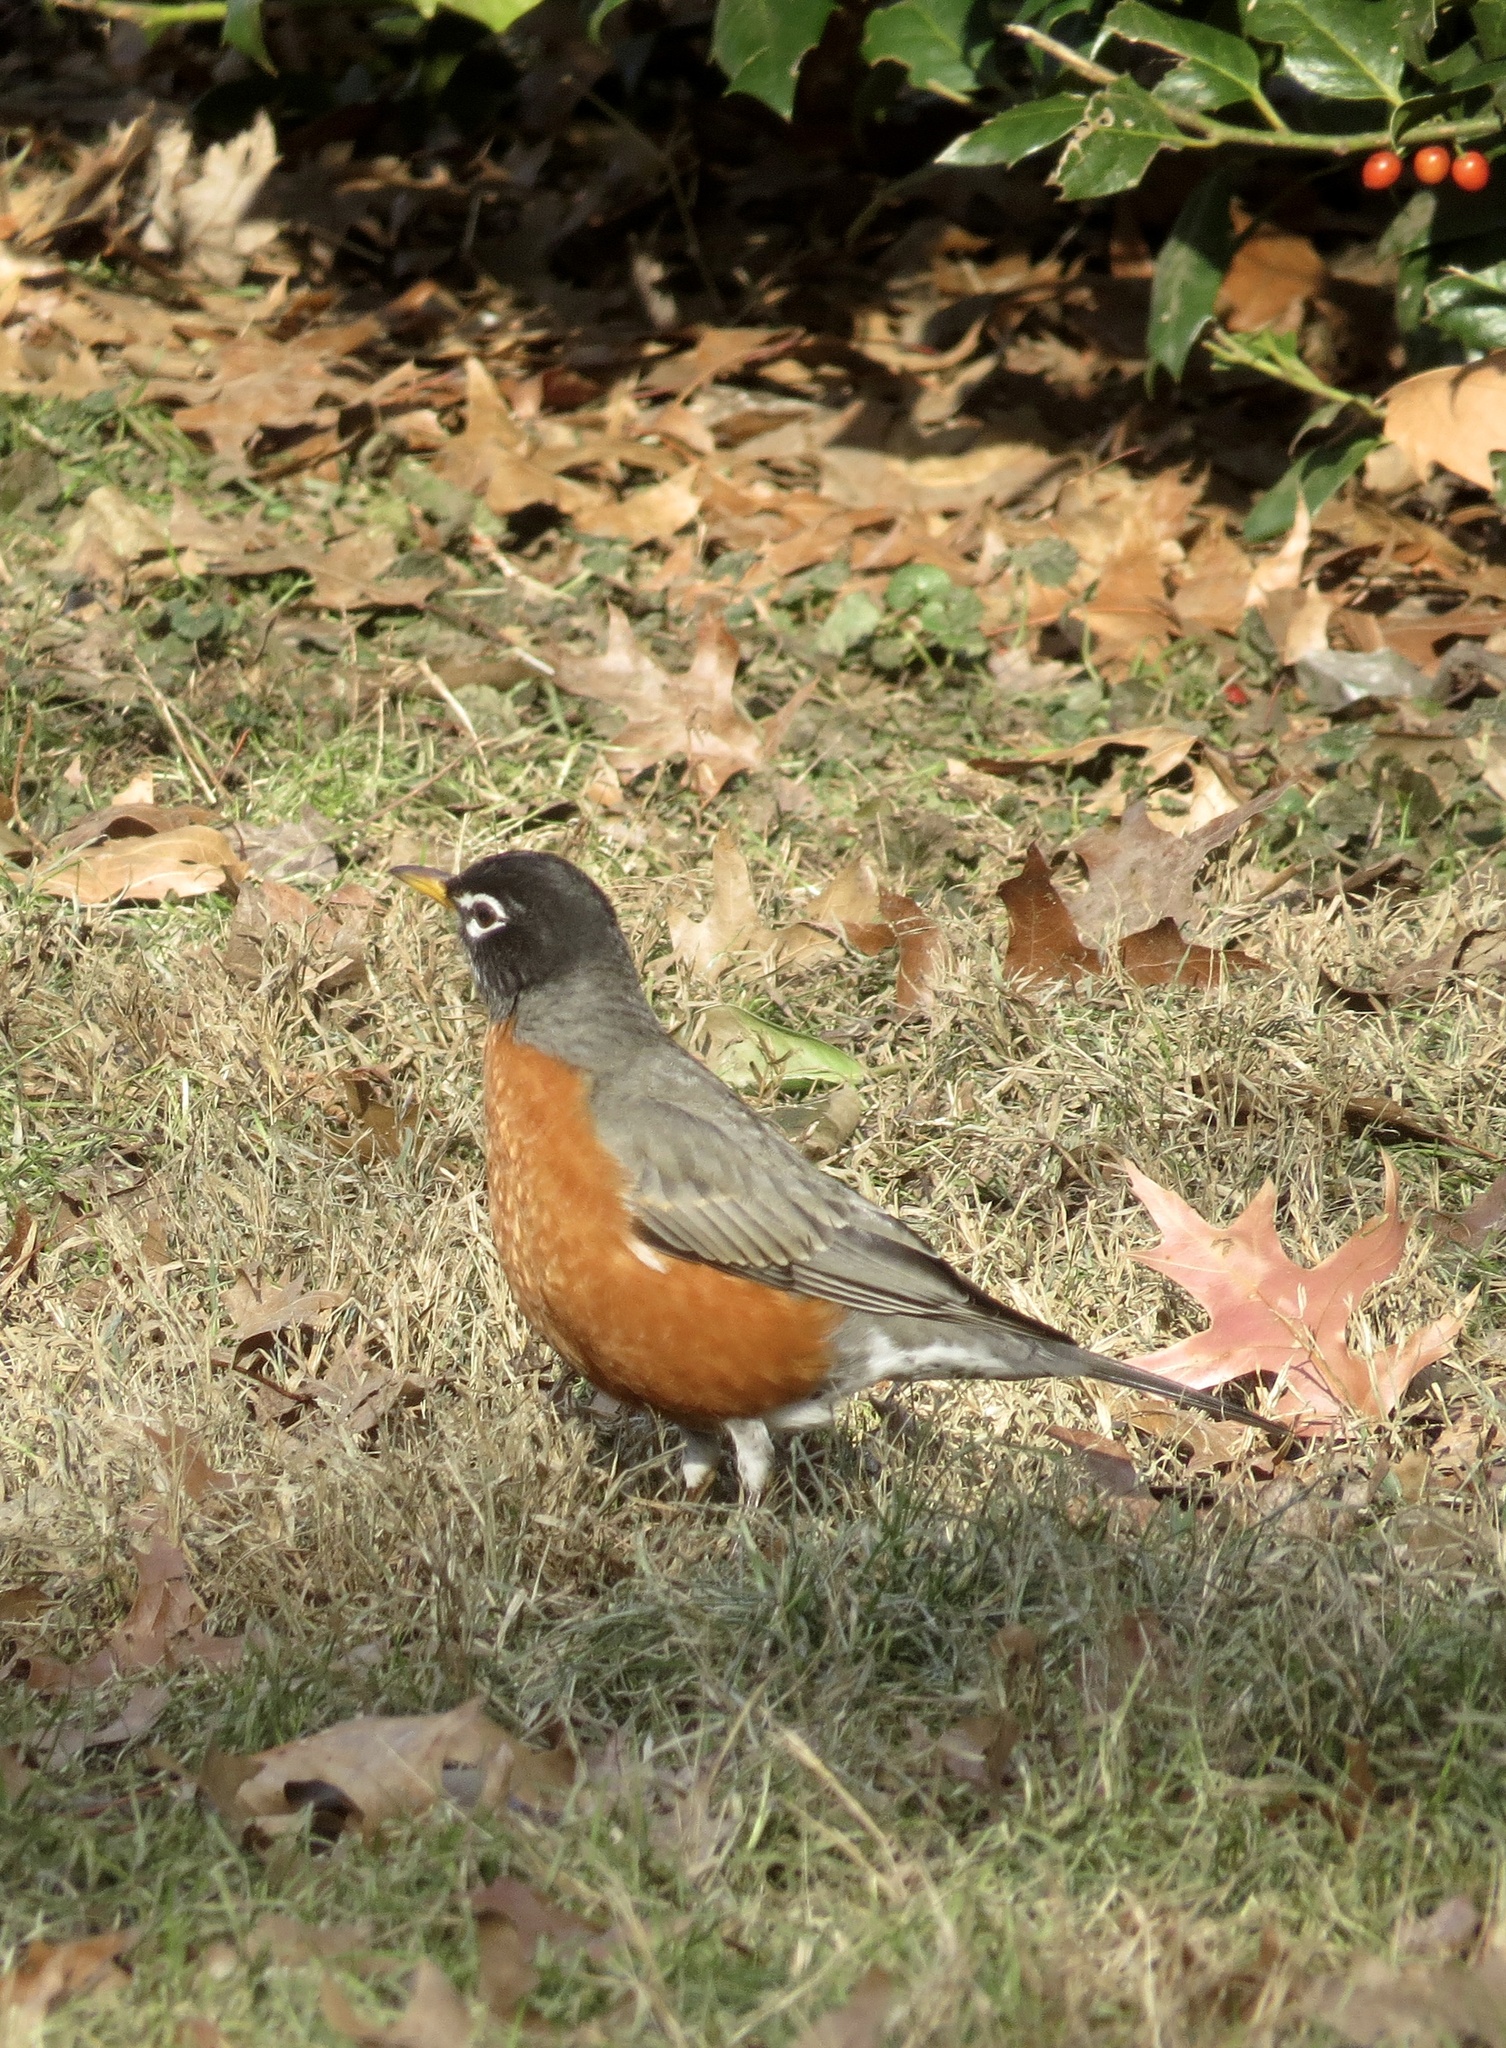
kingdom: Animalia
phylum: Chordata
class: Aves
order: Passeriformes
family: Turdidae
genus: Turdus
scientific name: Turdus migratorius
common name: American robin
